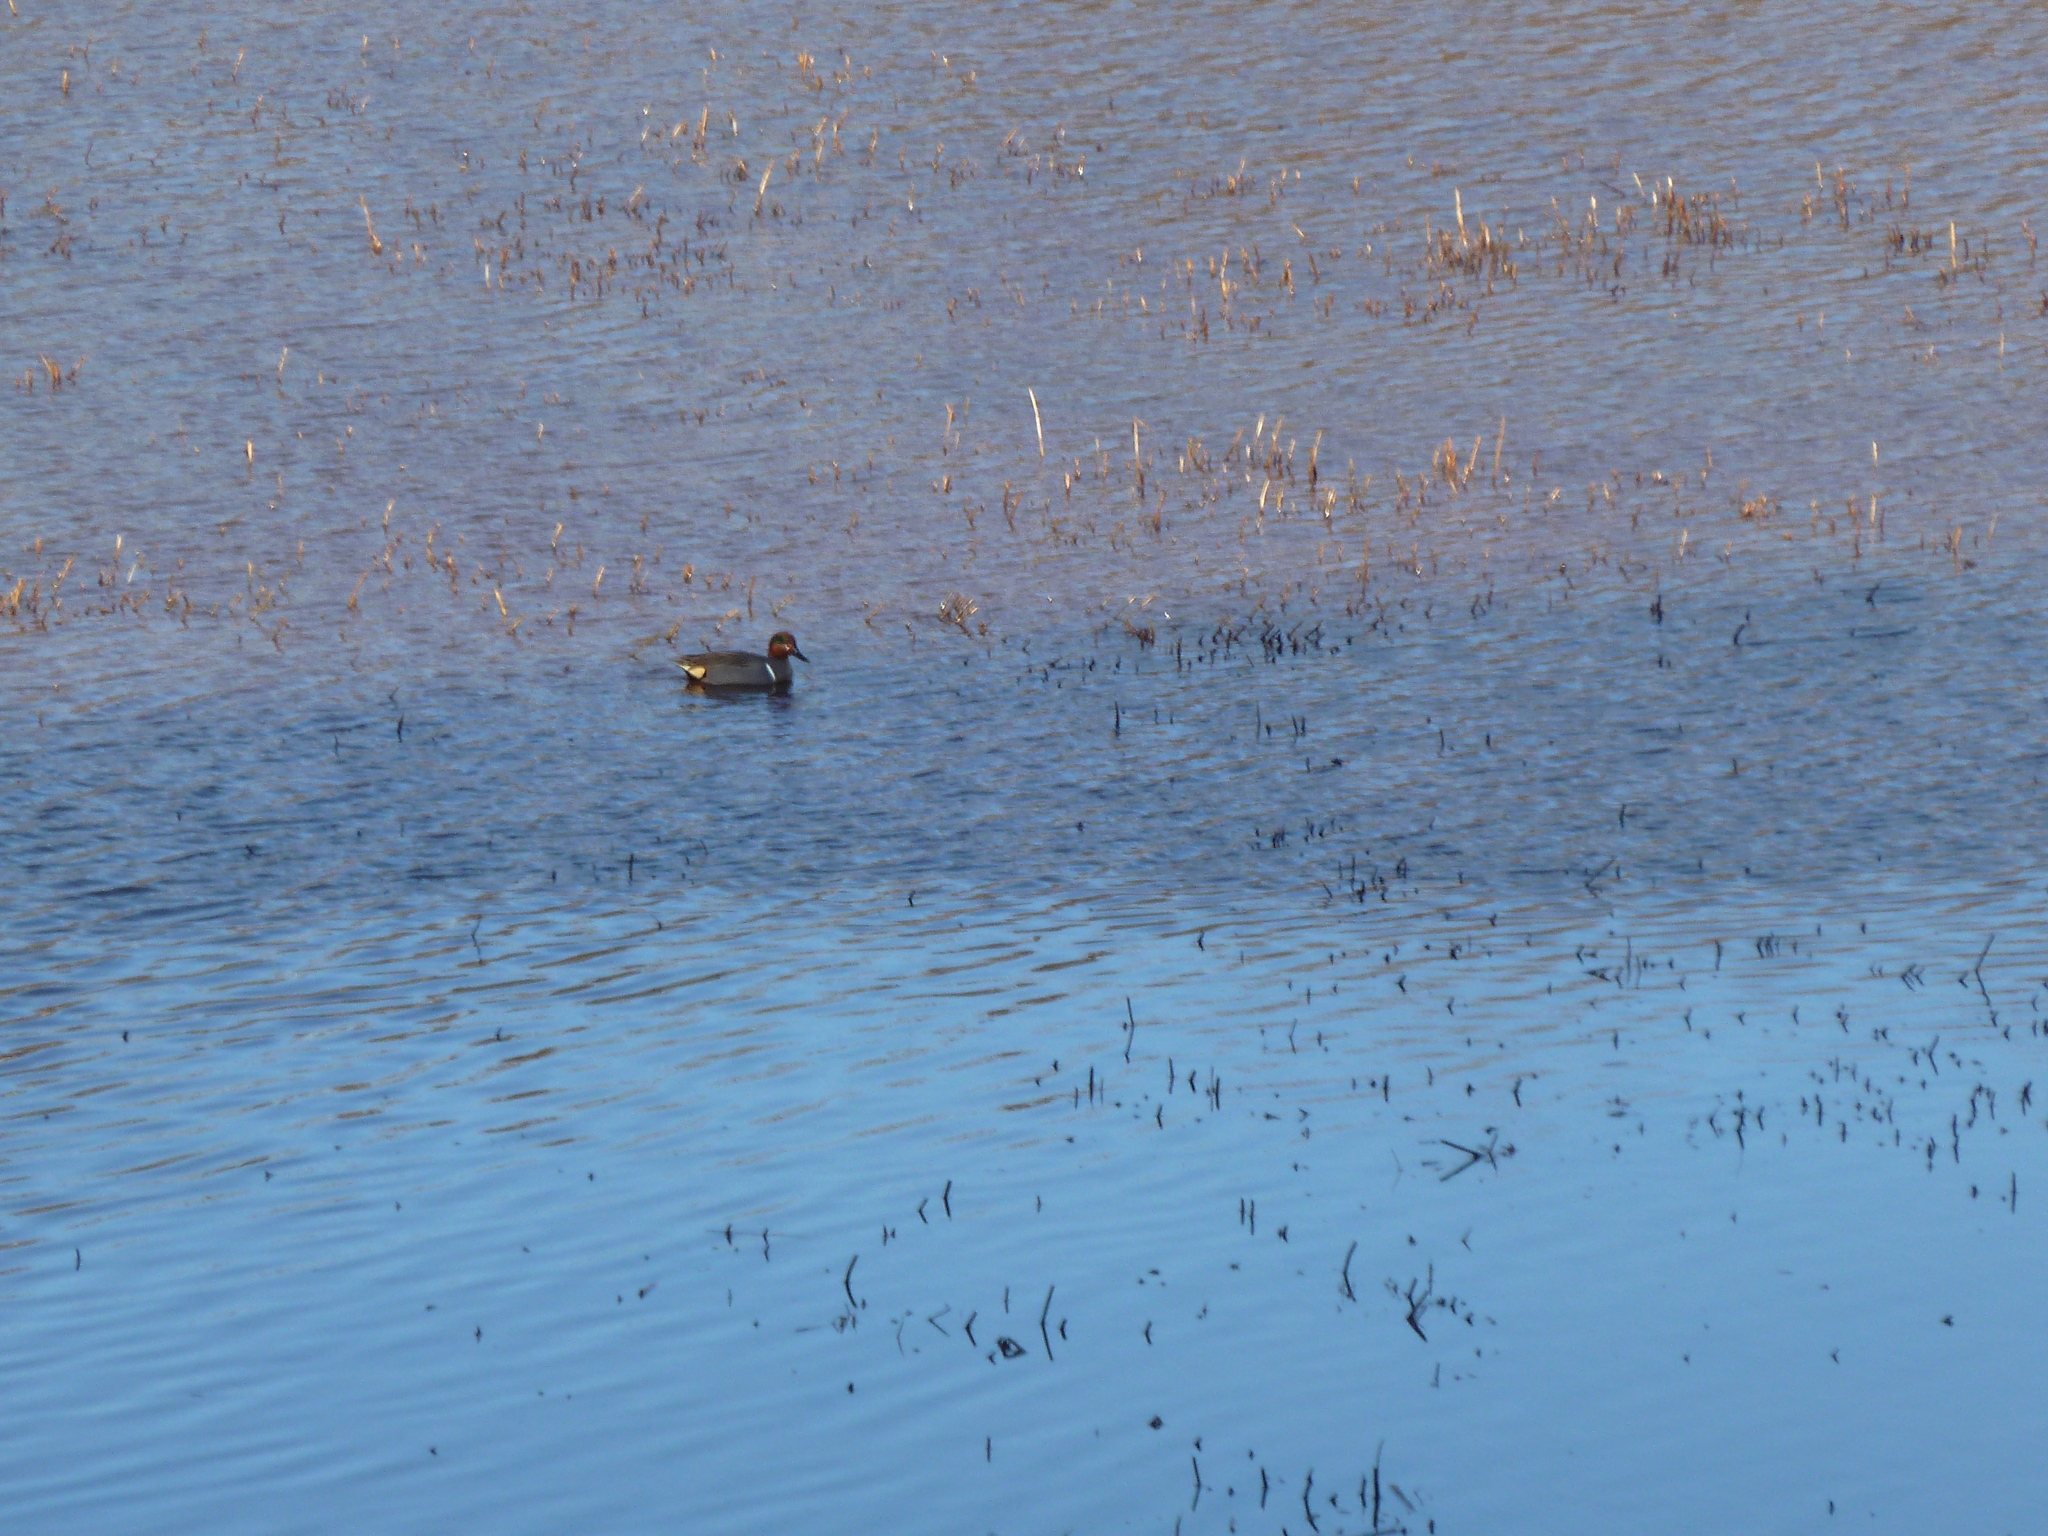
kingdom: Animalia
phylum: Chordata
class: Aves
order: Anseriformes
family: Anatidae
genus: Anas
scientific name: Anas crecca
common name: Eurasian teal
